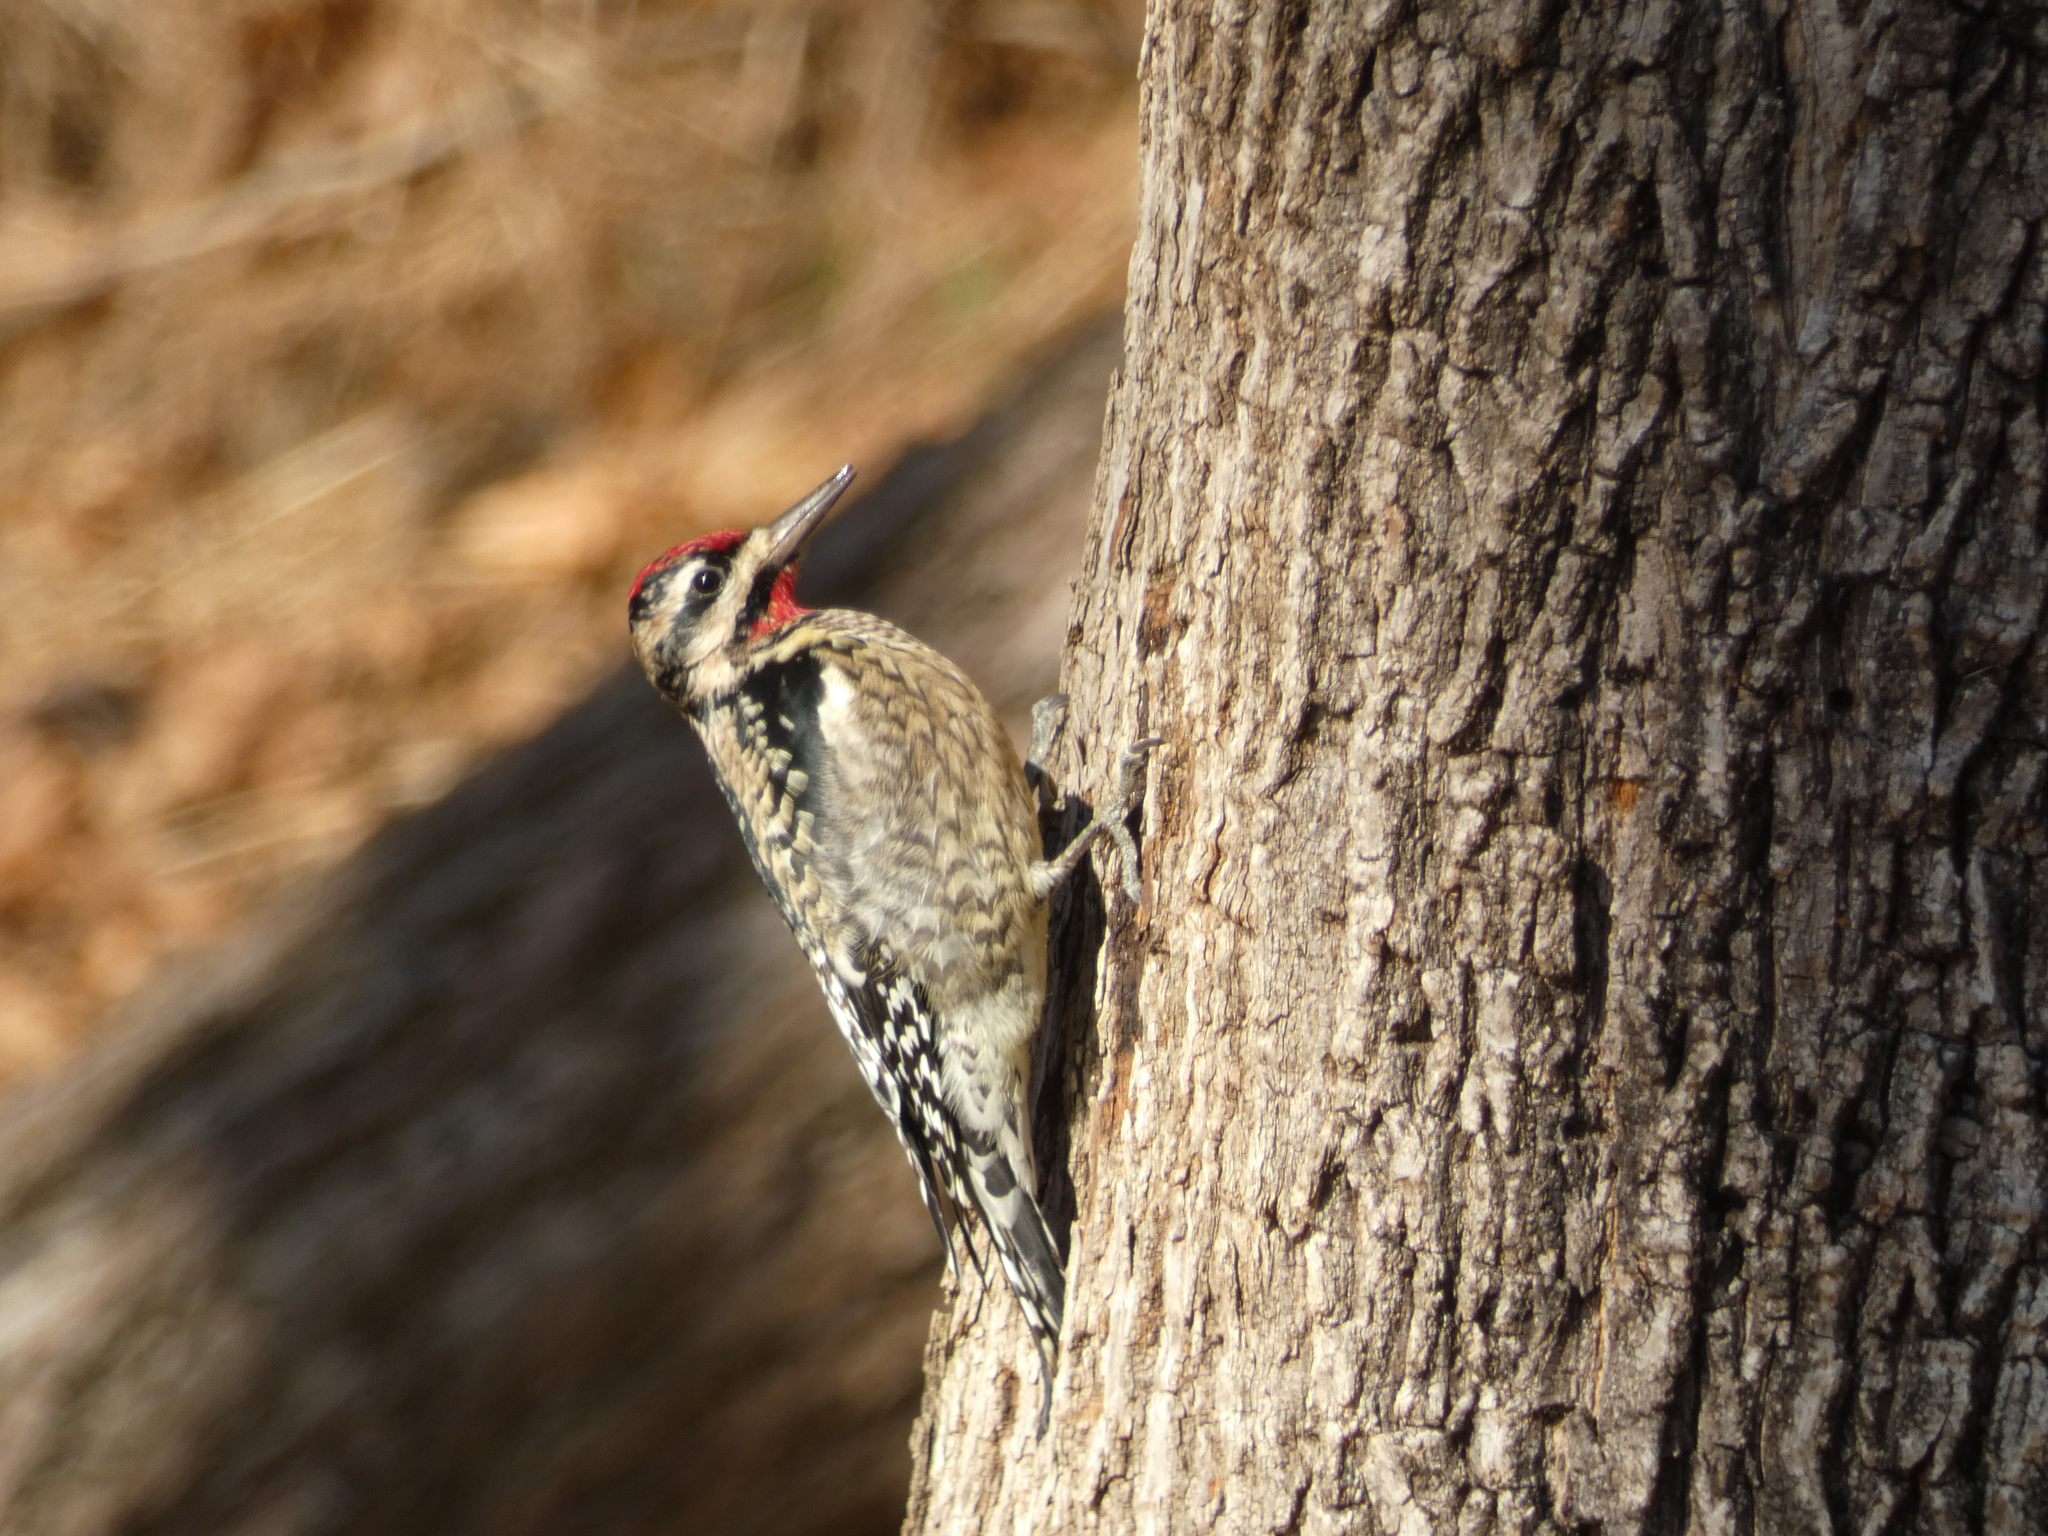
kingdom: Animalia
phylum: Chordata
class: Aves
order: Piciformes
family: Picidae
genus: Sphyrapicus
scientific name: Sphyrapicus varius
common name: Yellow-bellied sapsucker
